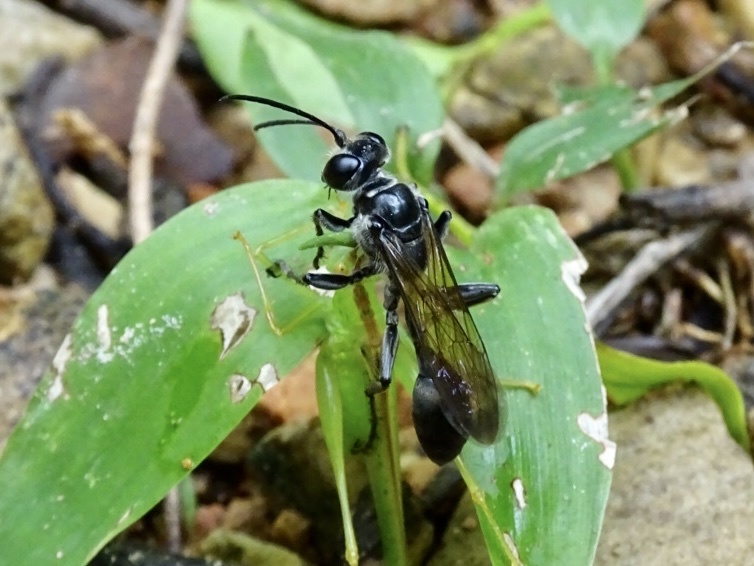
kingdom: Animalia
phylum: Arthropoda
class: Insecta
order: Hymenoptera
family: Sphecidae
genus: Isodontia
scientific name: Isodontia nigella
